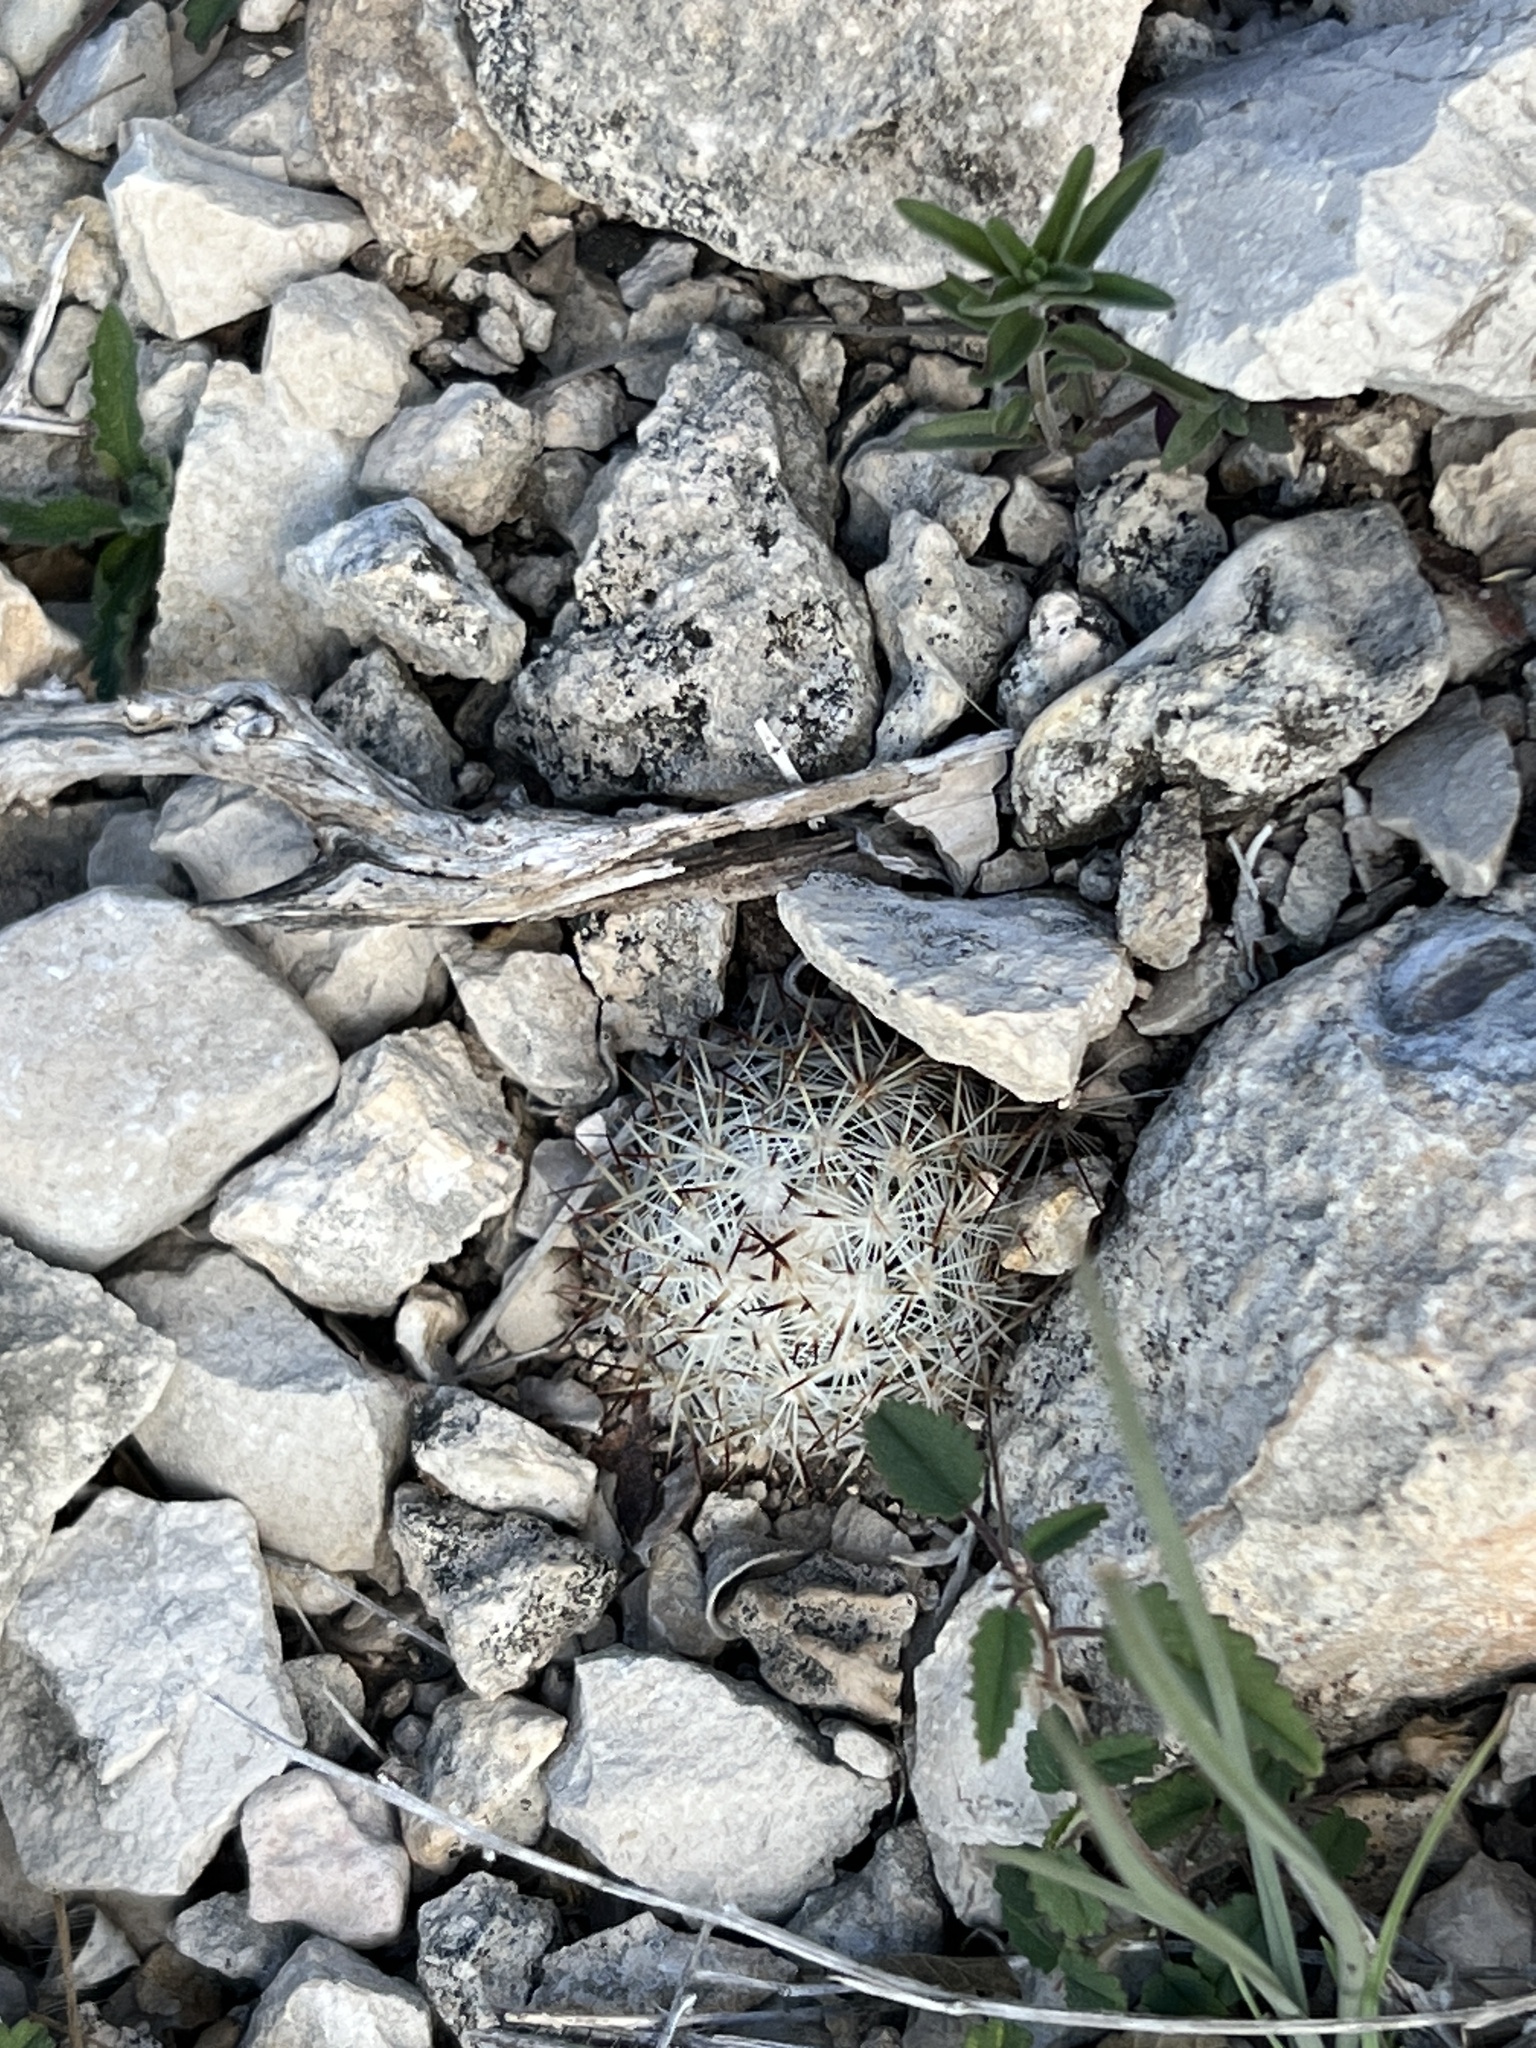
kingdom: Plantae
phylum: Tracheophyta
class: Magnoliopsida
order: Caryophyllales
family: Cactaceae
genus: Pelecyphora
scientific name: Pelecyphora emskoetteriana
